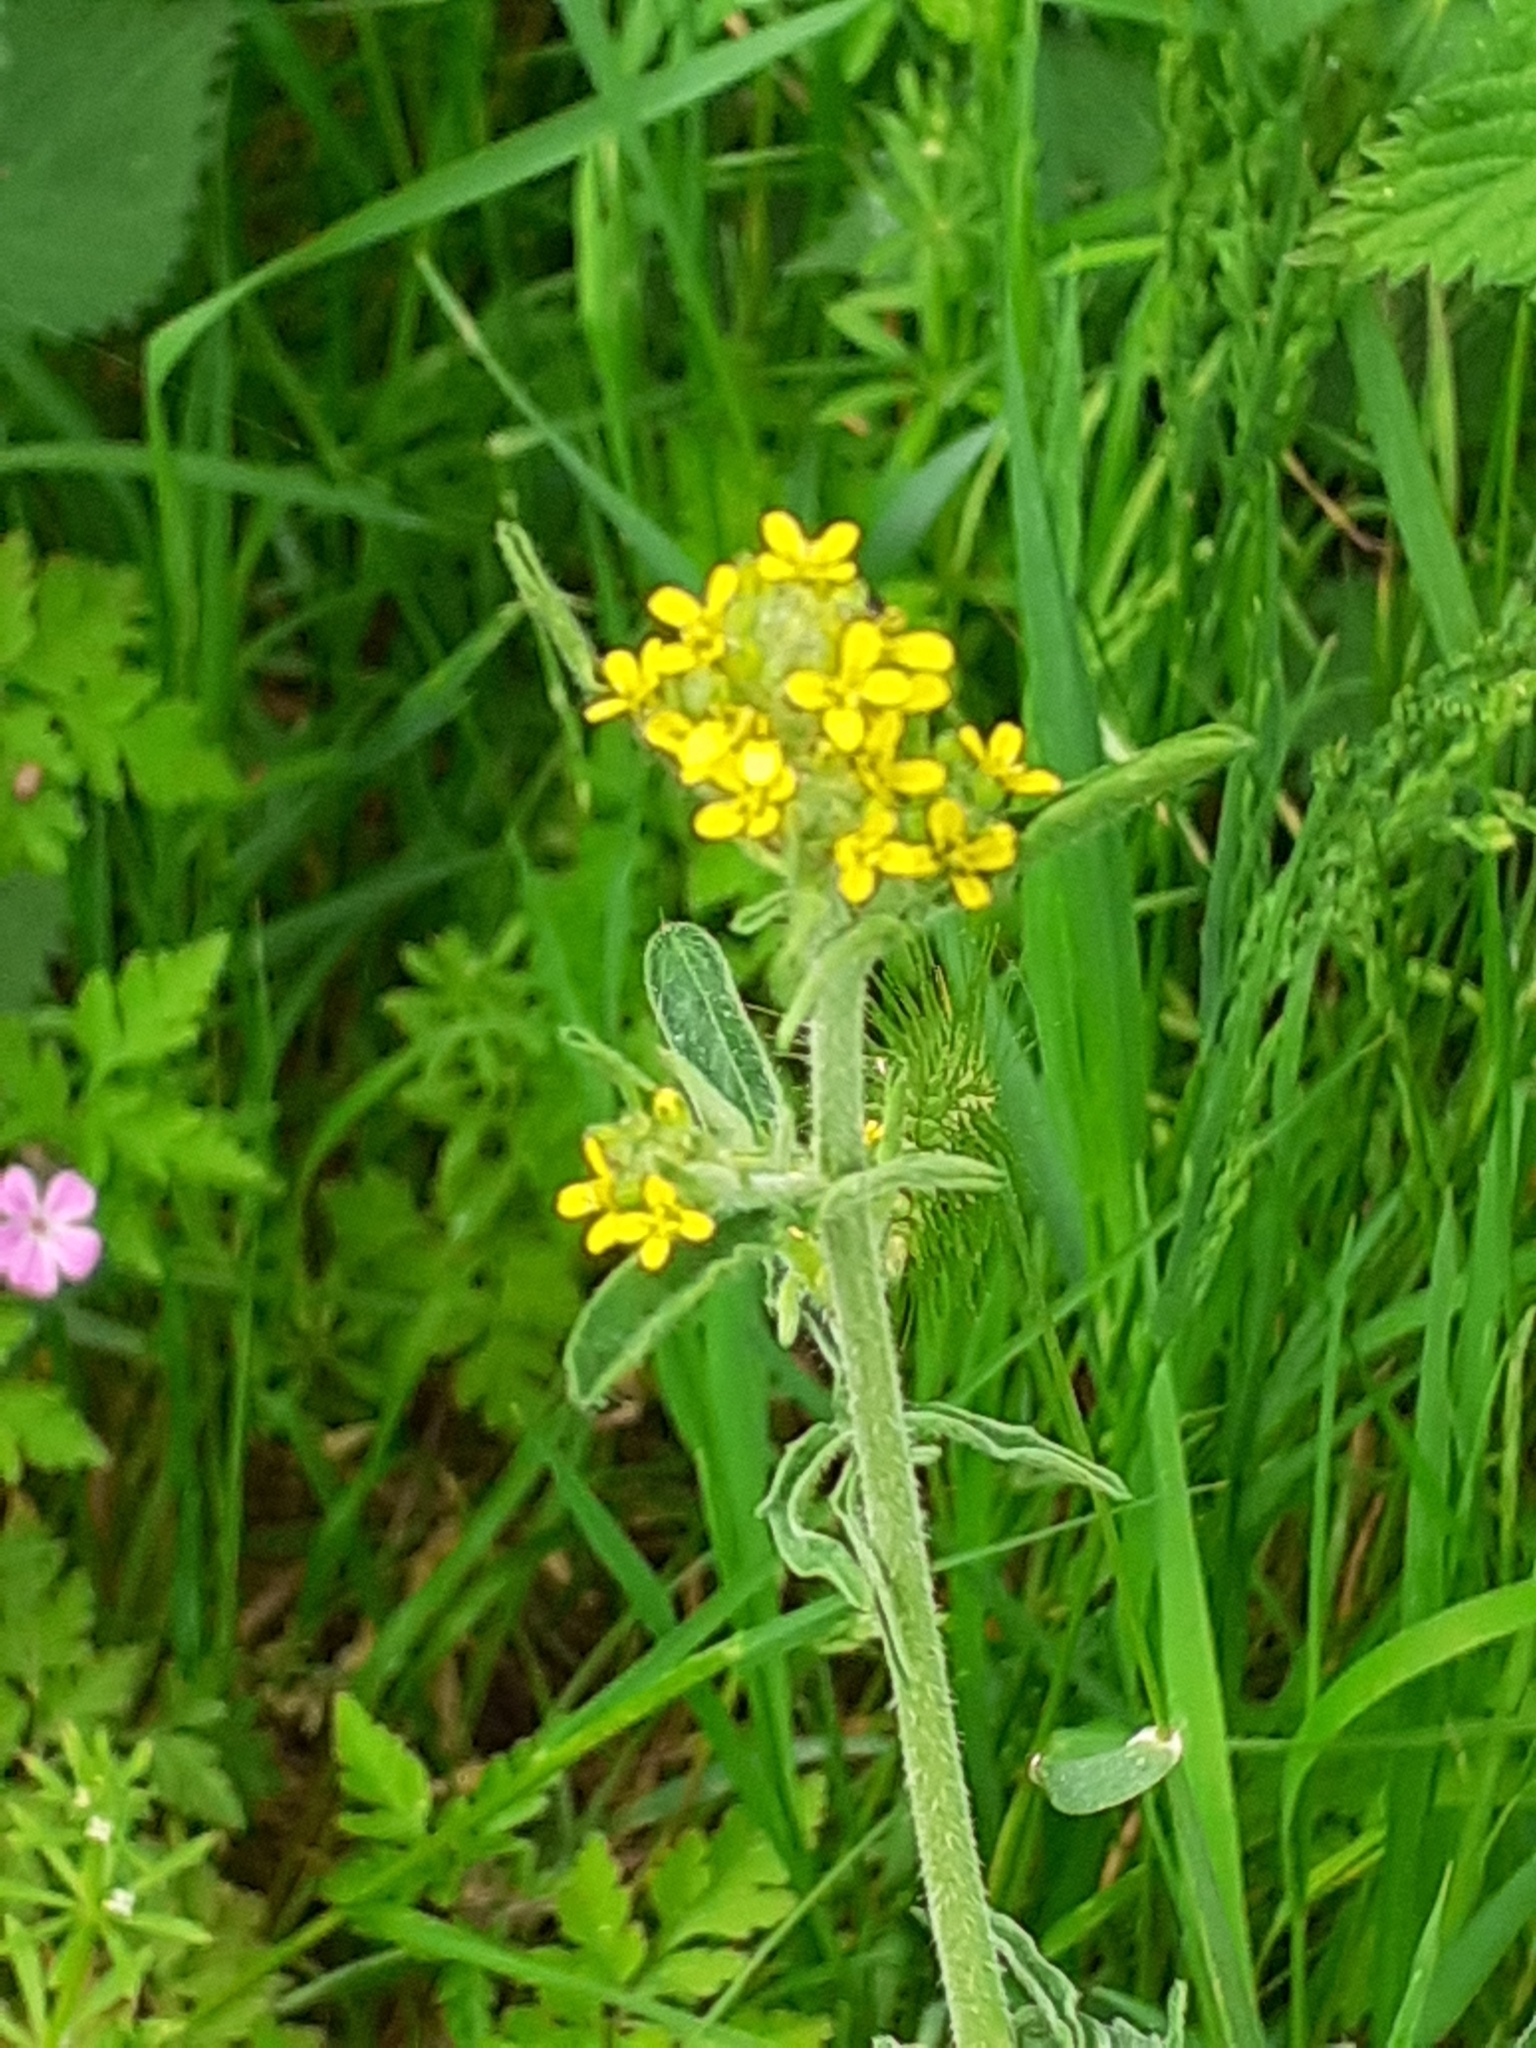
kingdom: Plantae
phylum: Tracheophyta
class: Magnoliopsida
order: Brassicales
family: Brassicaceae
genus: Sisymbrium
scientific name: Sisymbrium officinale
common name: Hedge mustard
